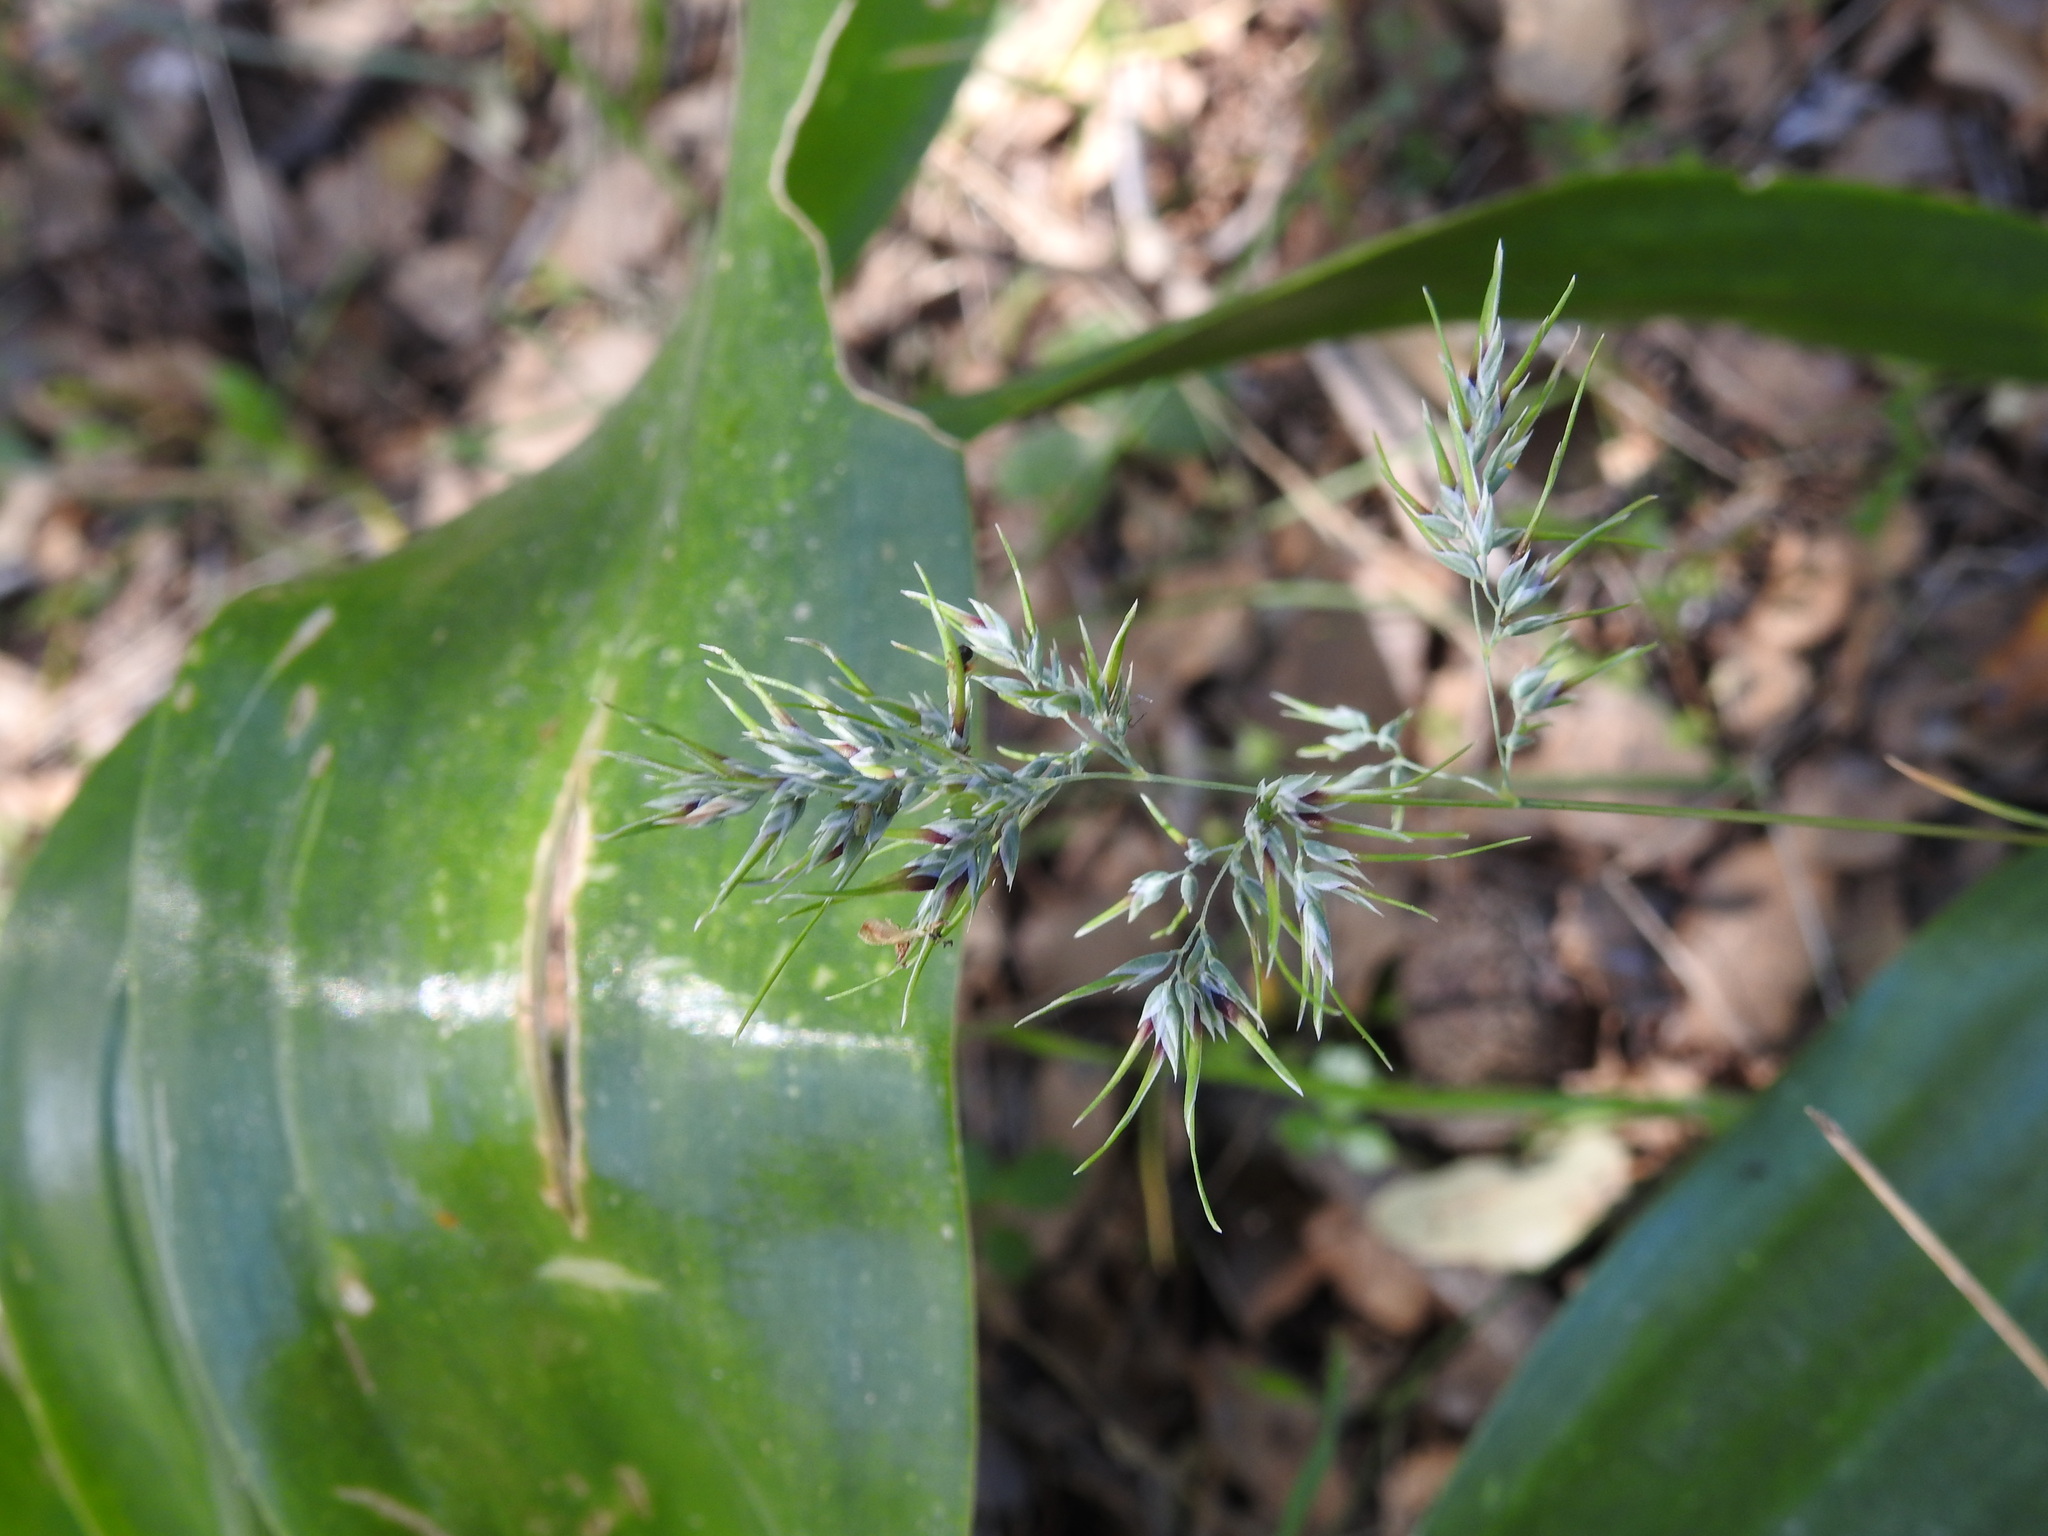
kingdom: Plantae
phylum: Tracheophyta
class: Liliopsida
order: Poales
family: Poaceae
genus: Poa
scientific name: Poa bulbosa
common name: Bulbous bluegrass
